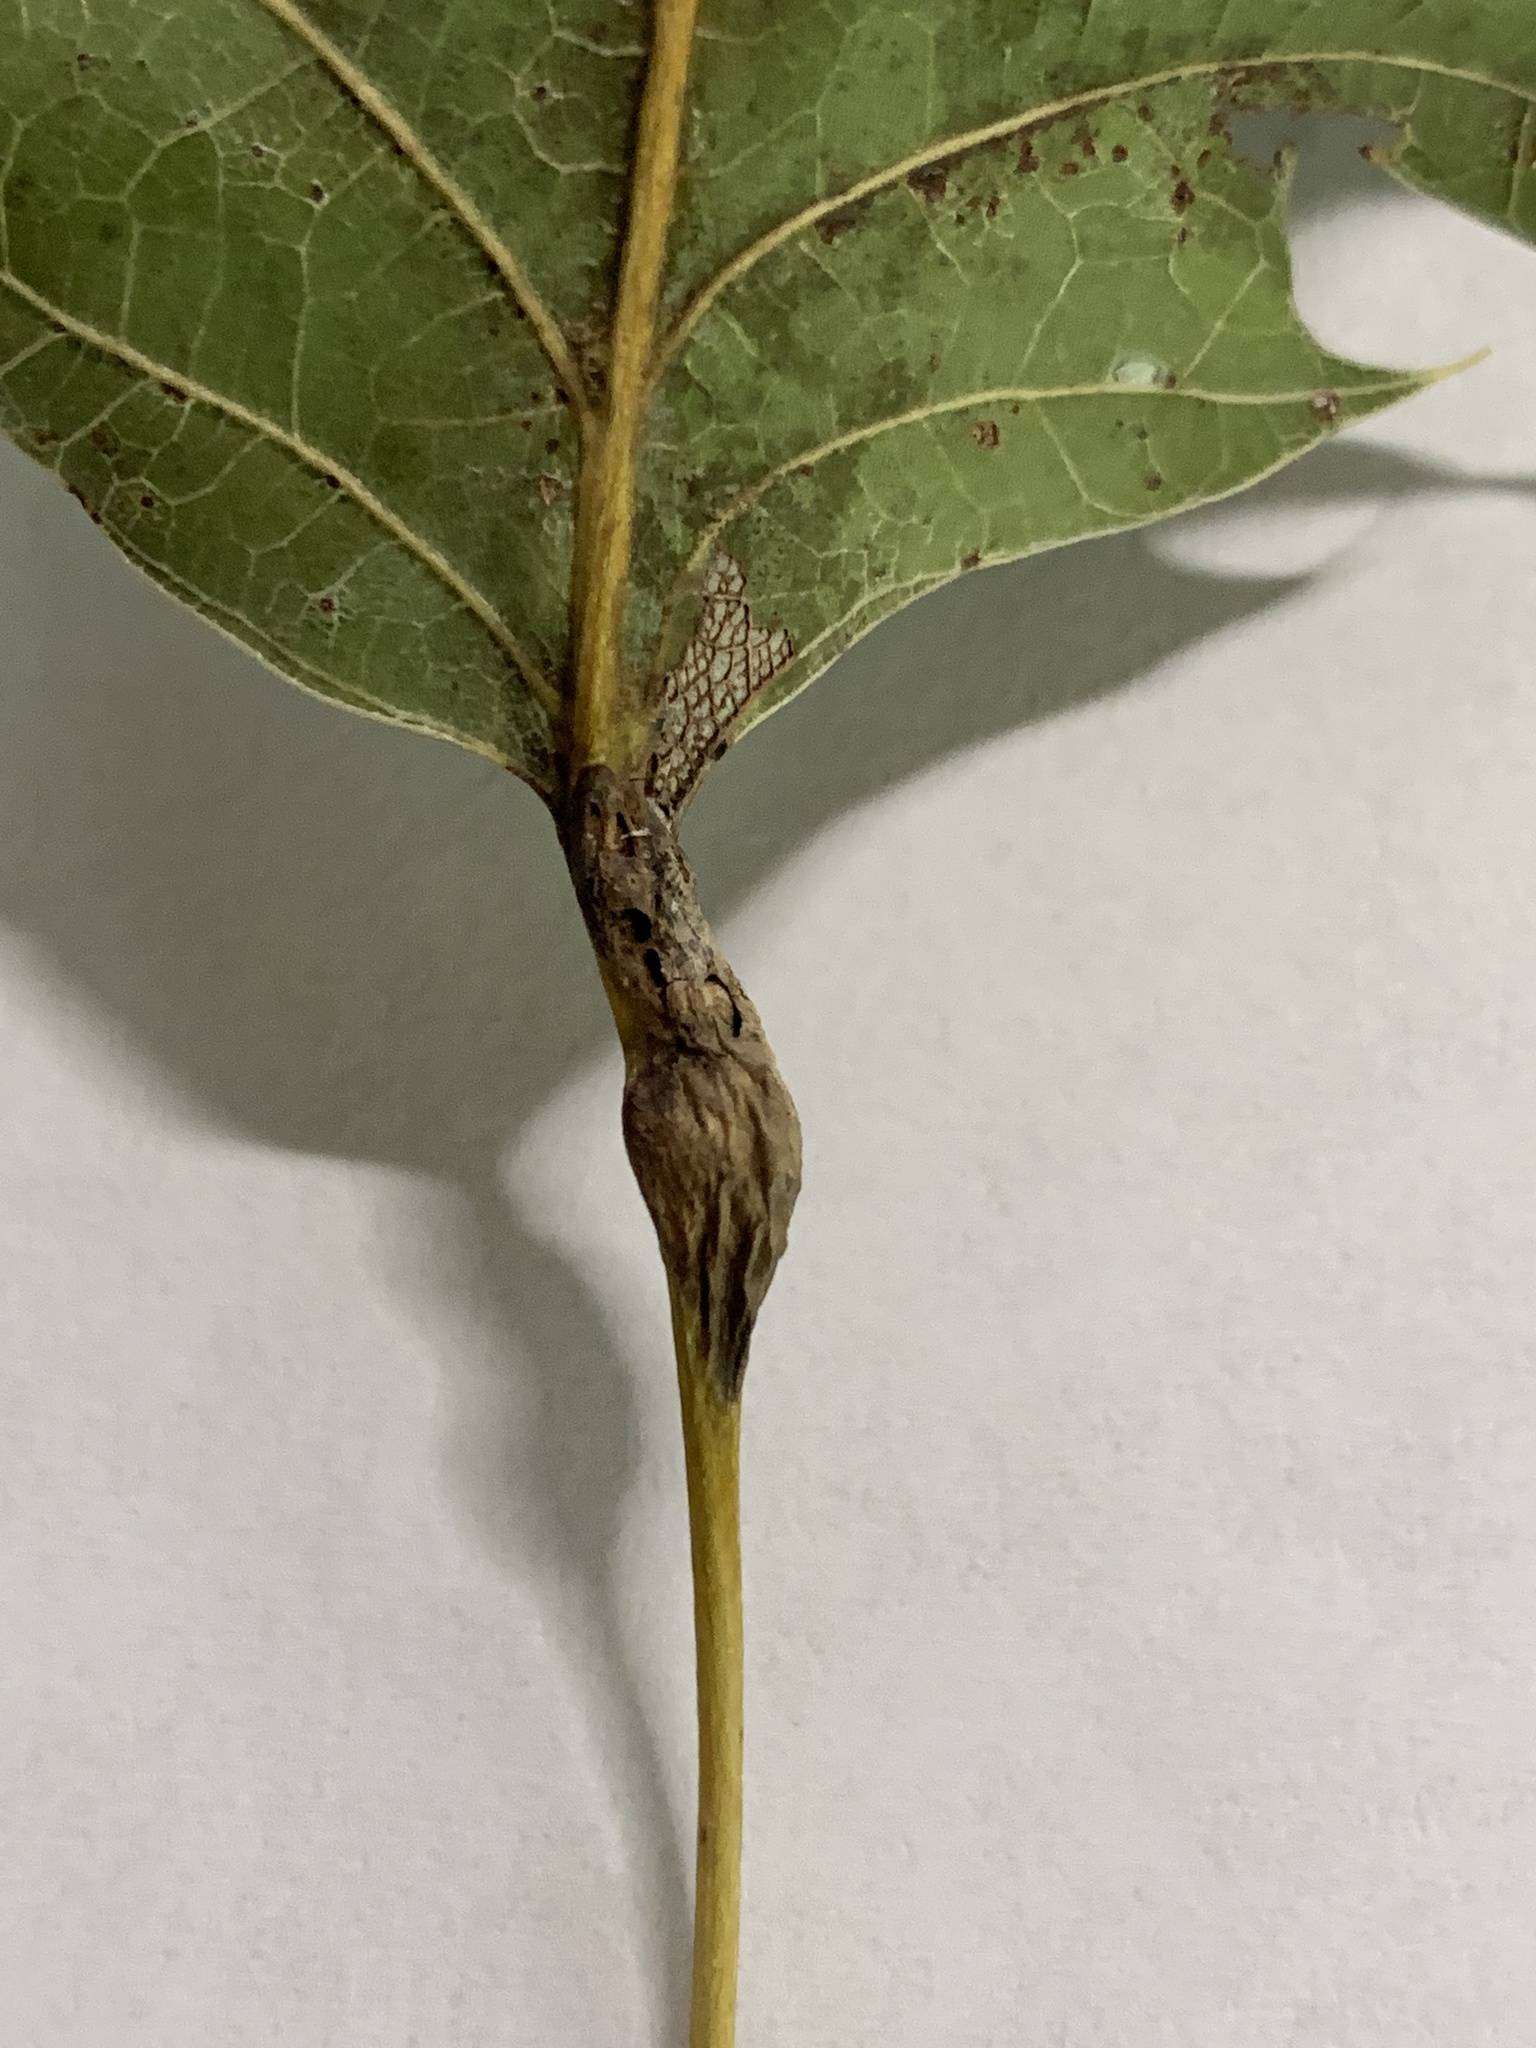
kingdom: Animalia
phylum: Arthropoda
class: Insecta
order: Hymenoptera
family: Cynipidae
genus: Melikaiella
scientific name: Melikaiella tumifica
